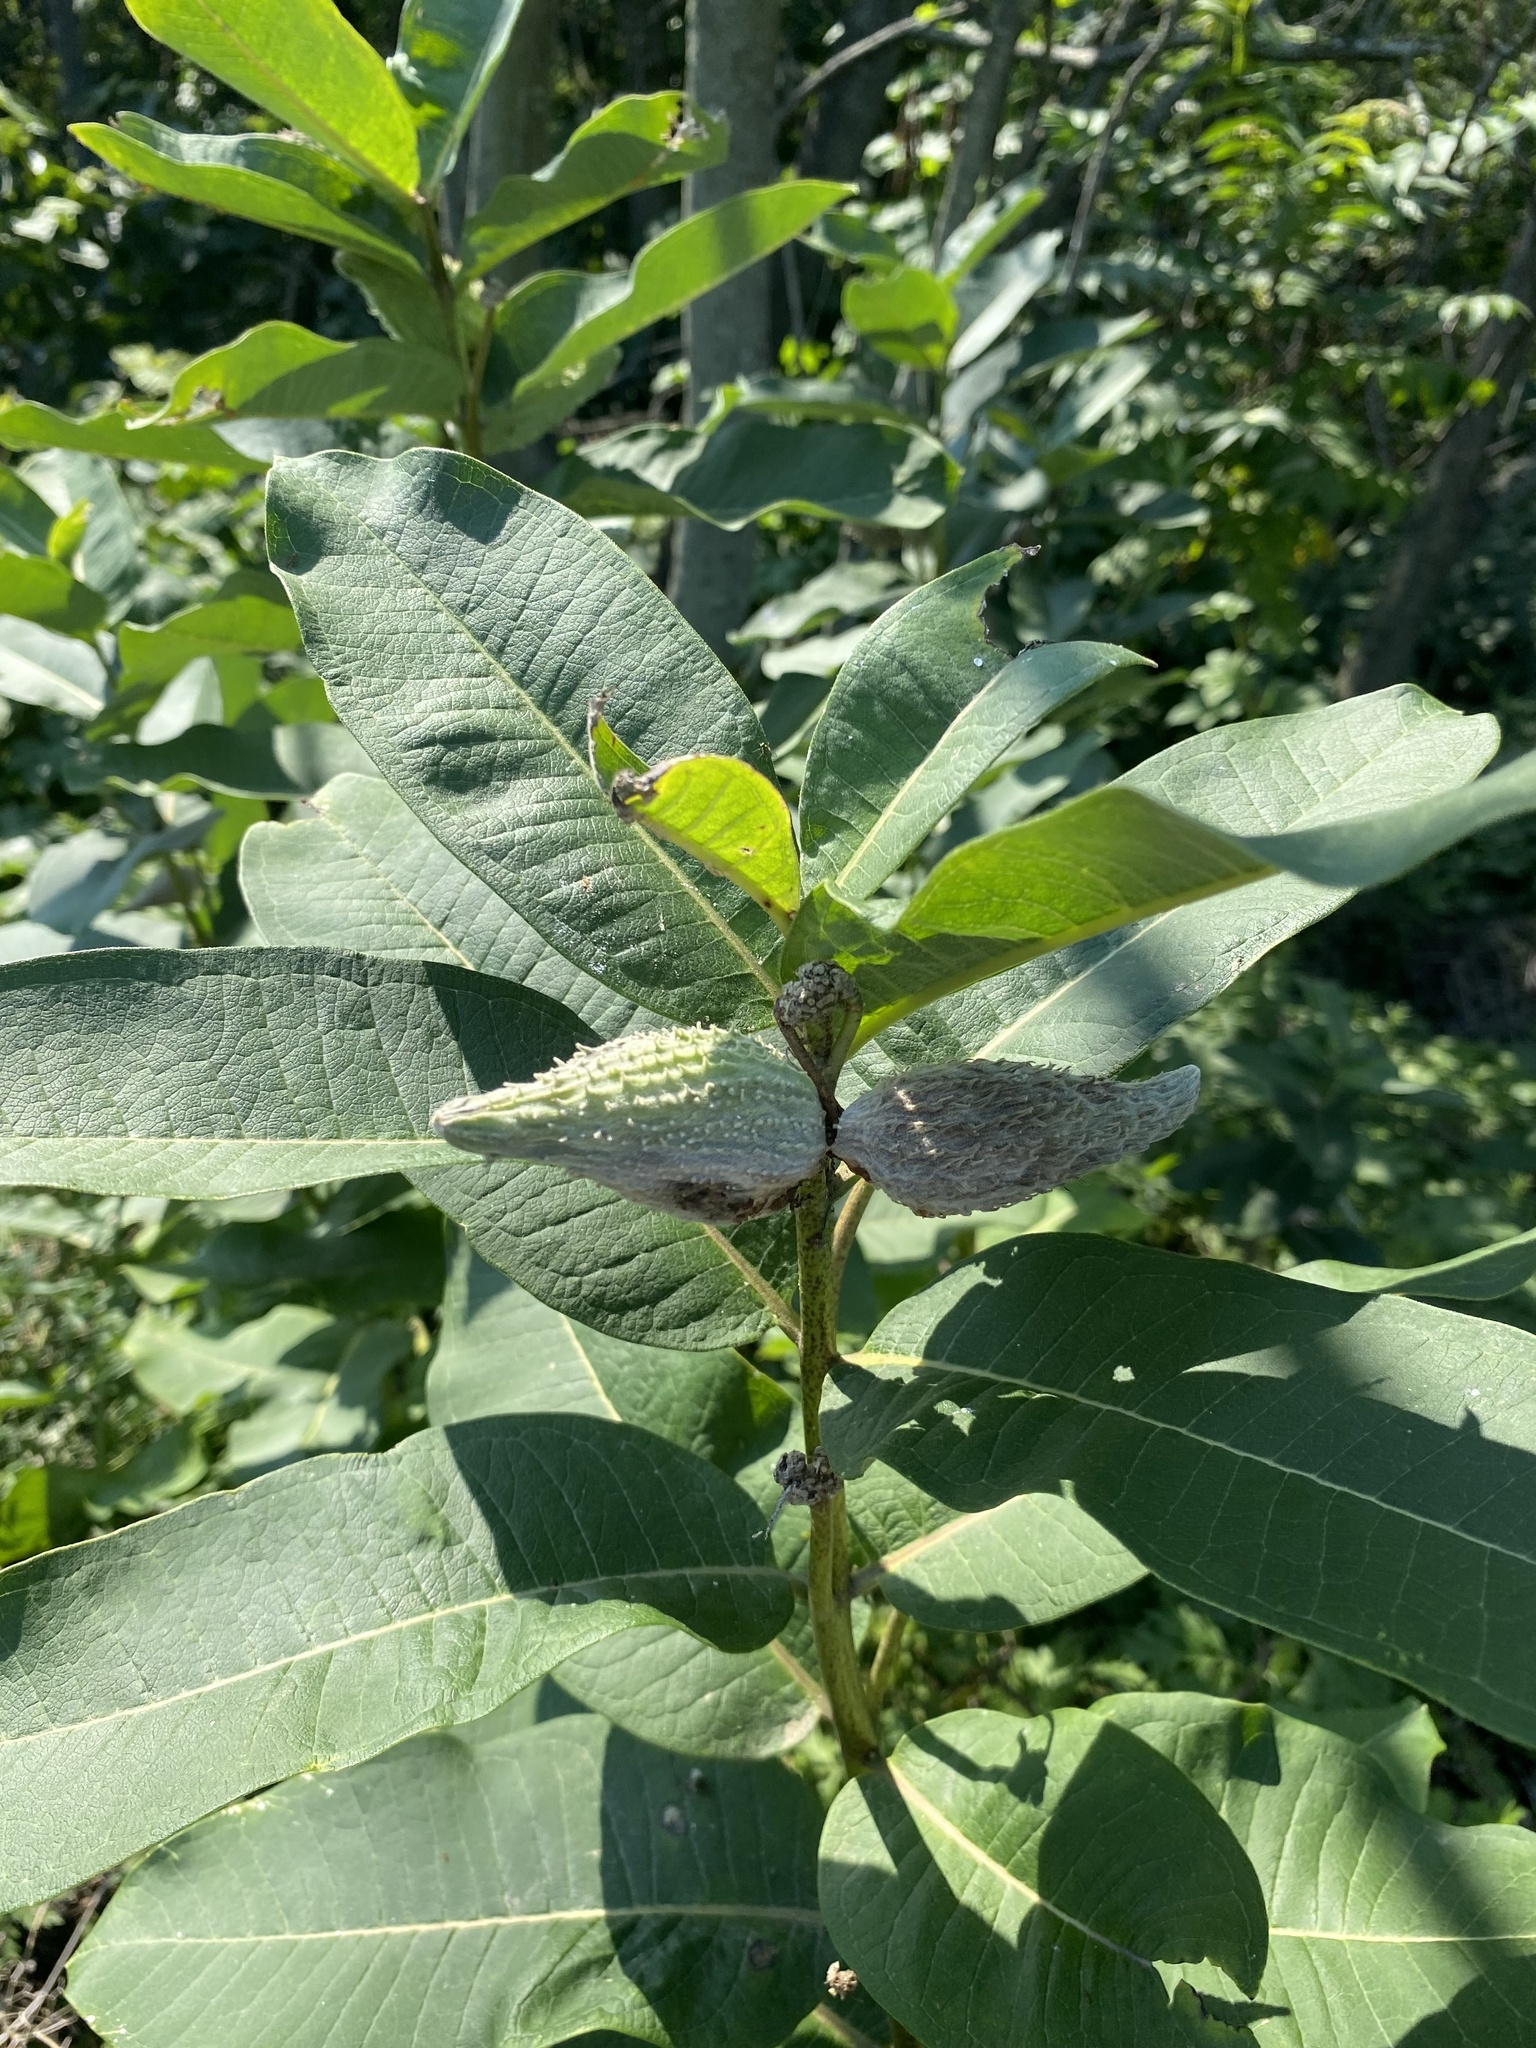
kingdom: Plantae
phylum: Tracheophyta
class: Magnoliopsida
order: Gentianales
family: Apocynaceae
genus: Asclepias
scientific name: Asclepias syriaca
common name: Common milkweed
